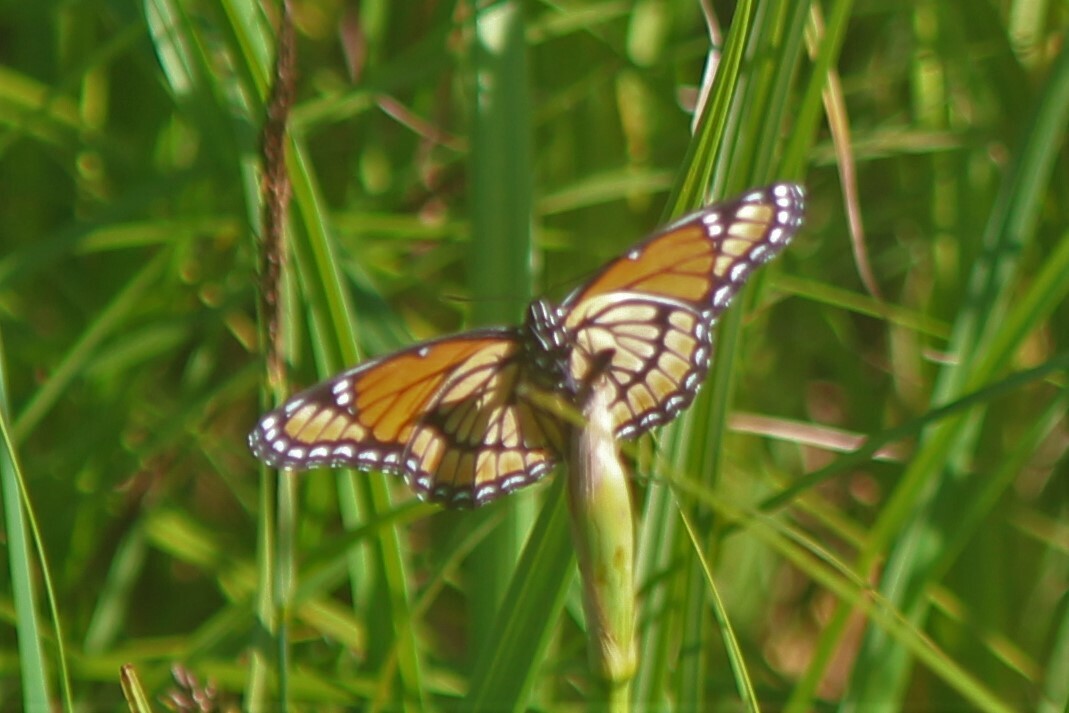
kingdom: Animalia
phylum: Arthropoda
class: Insecta
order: Lepidoptera
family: Nymphalidae
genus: Limenitis
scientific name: Limenitis archippus
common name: Viceroy
